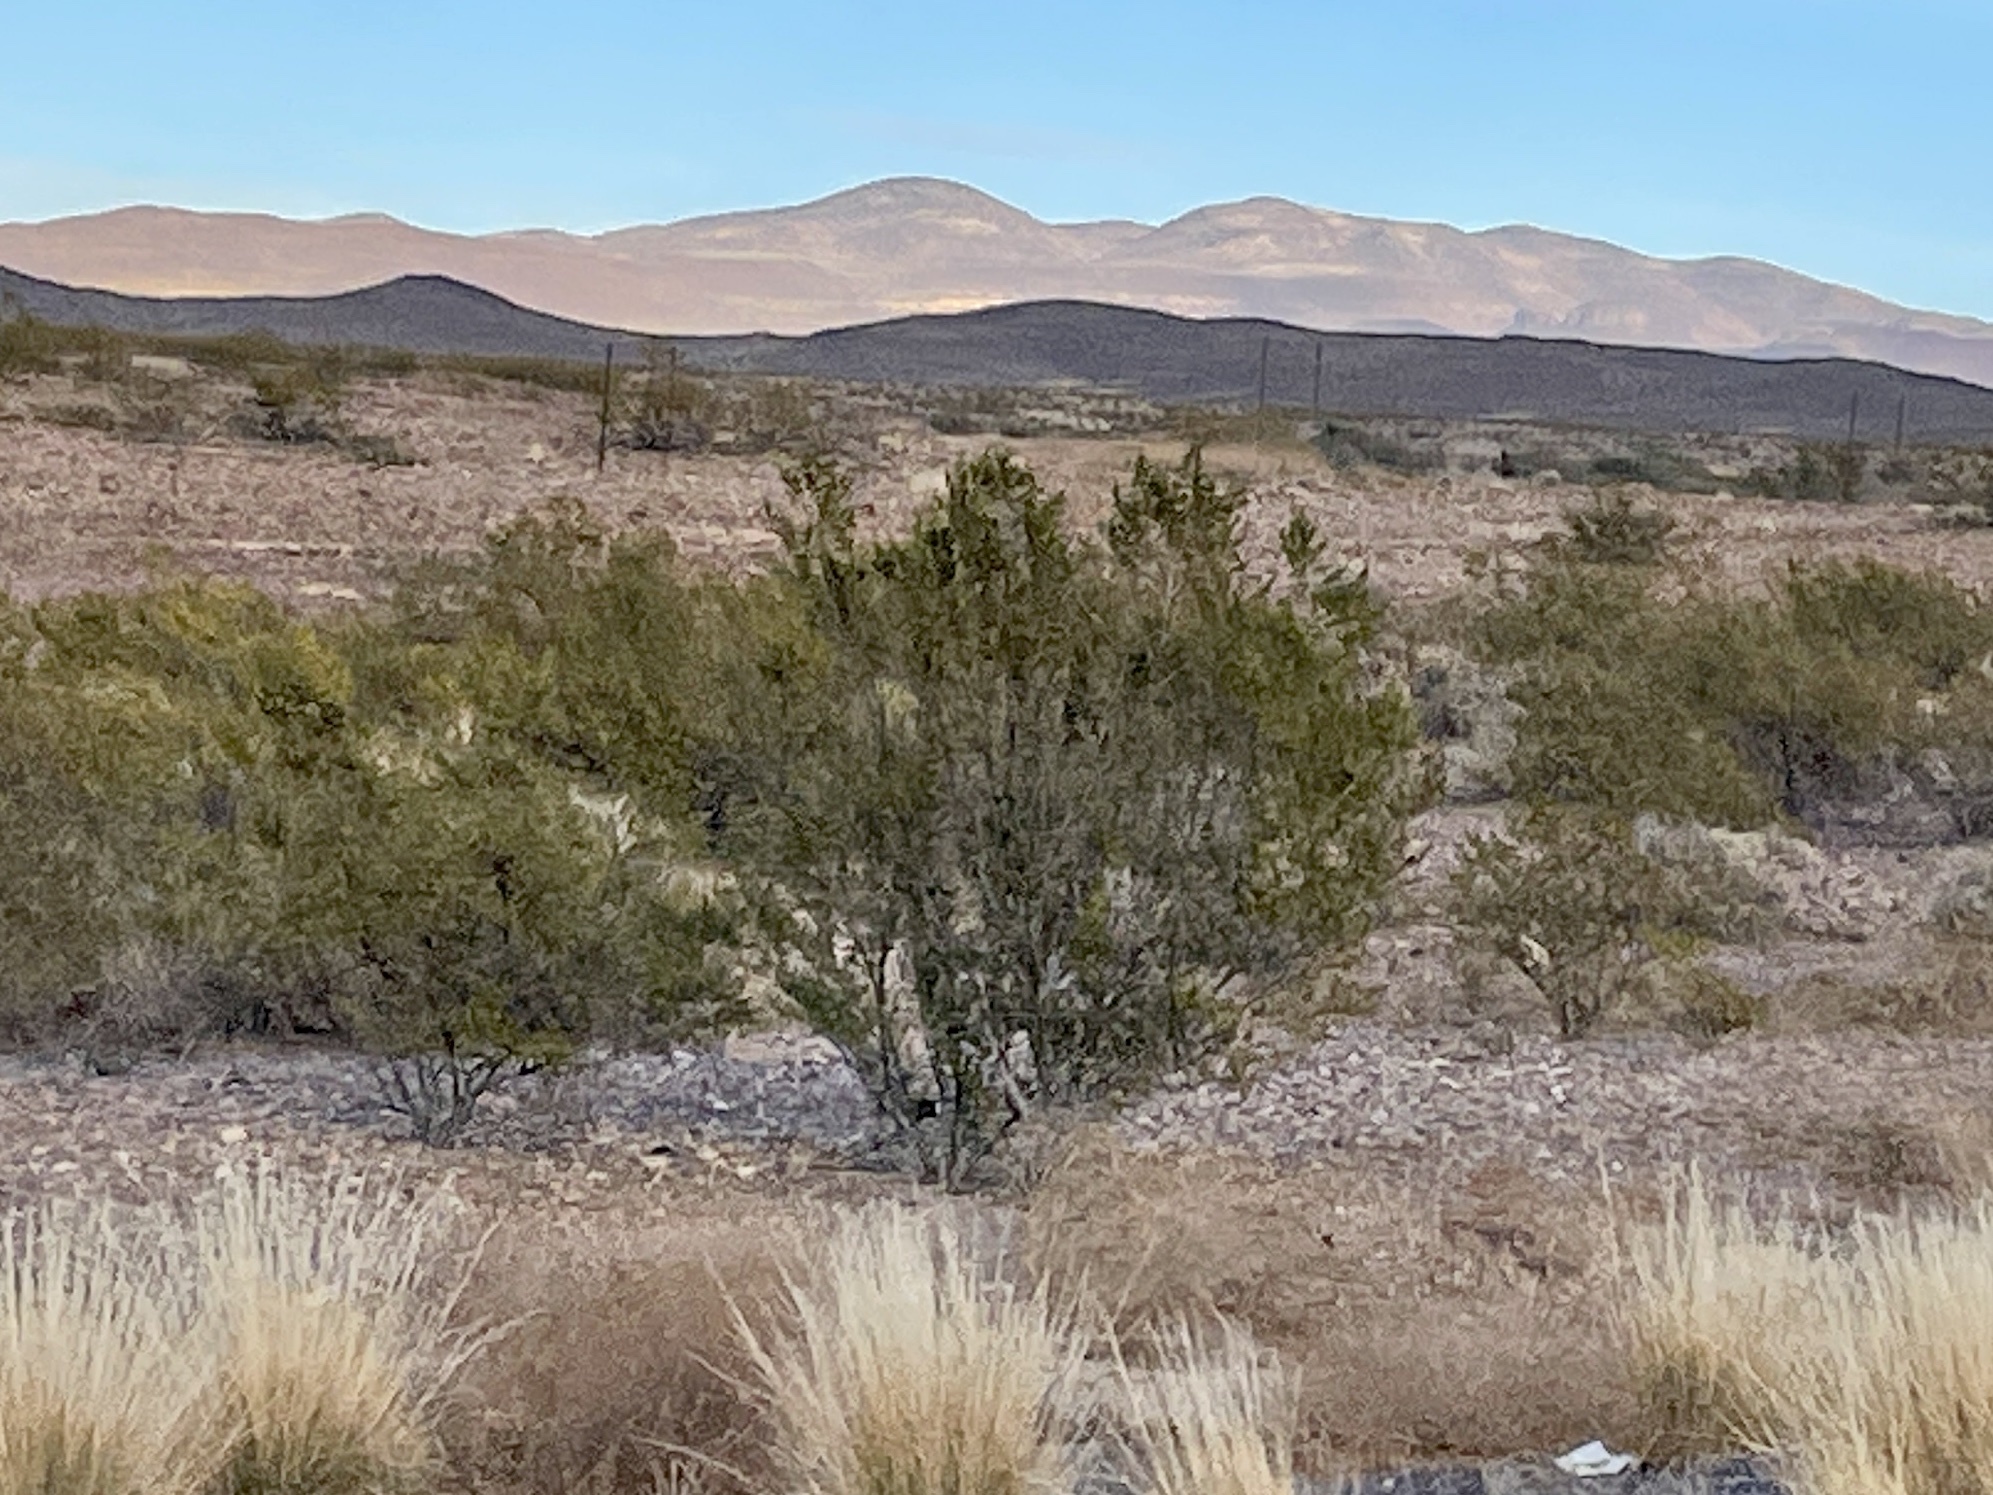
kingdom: Plantae
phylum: Tracheophyta
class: Magnoliopsida
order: Zygophyllales
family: Zygophyllaceae
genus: Larrea
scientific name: Larrea tridentata
